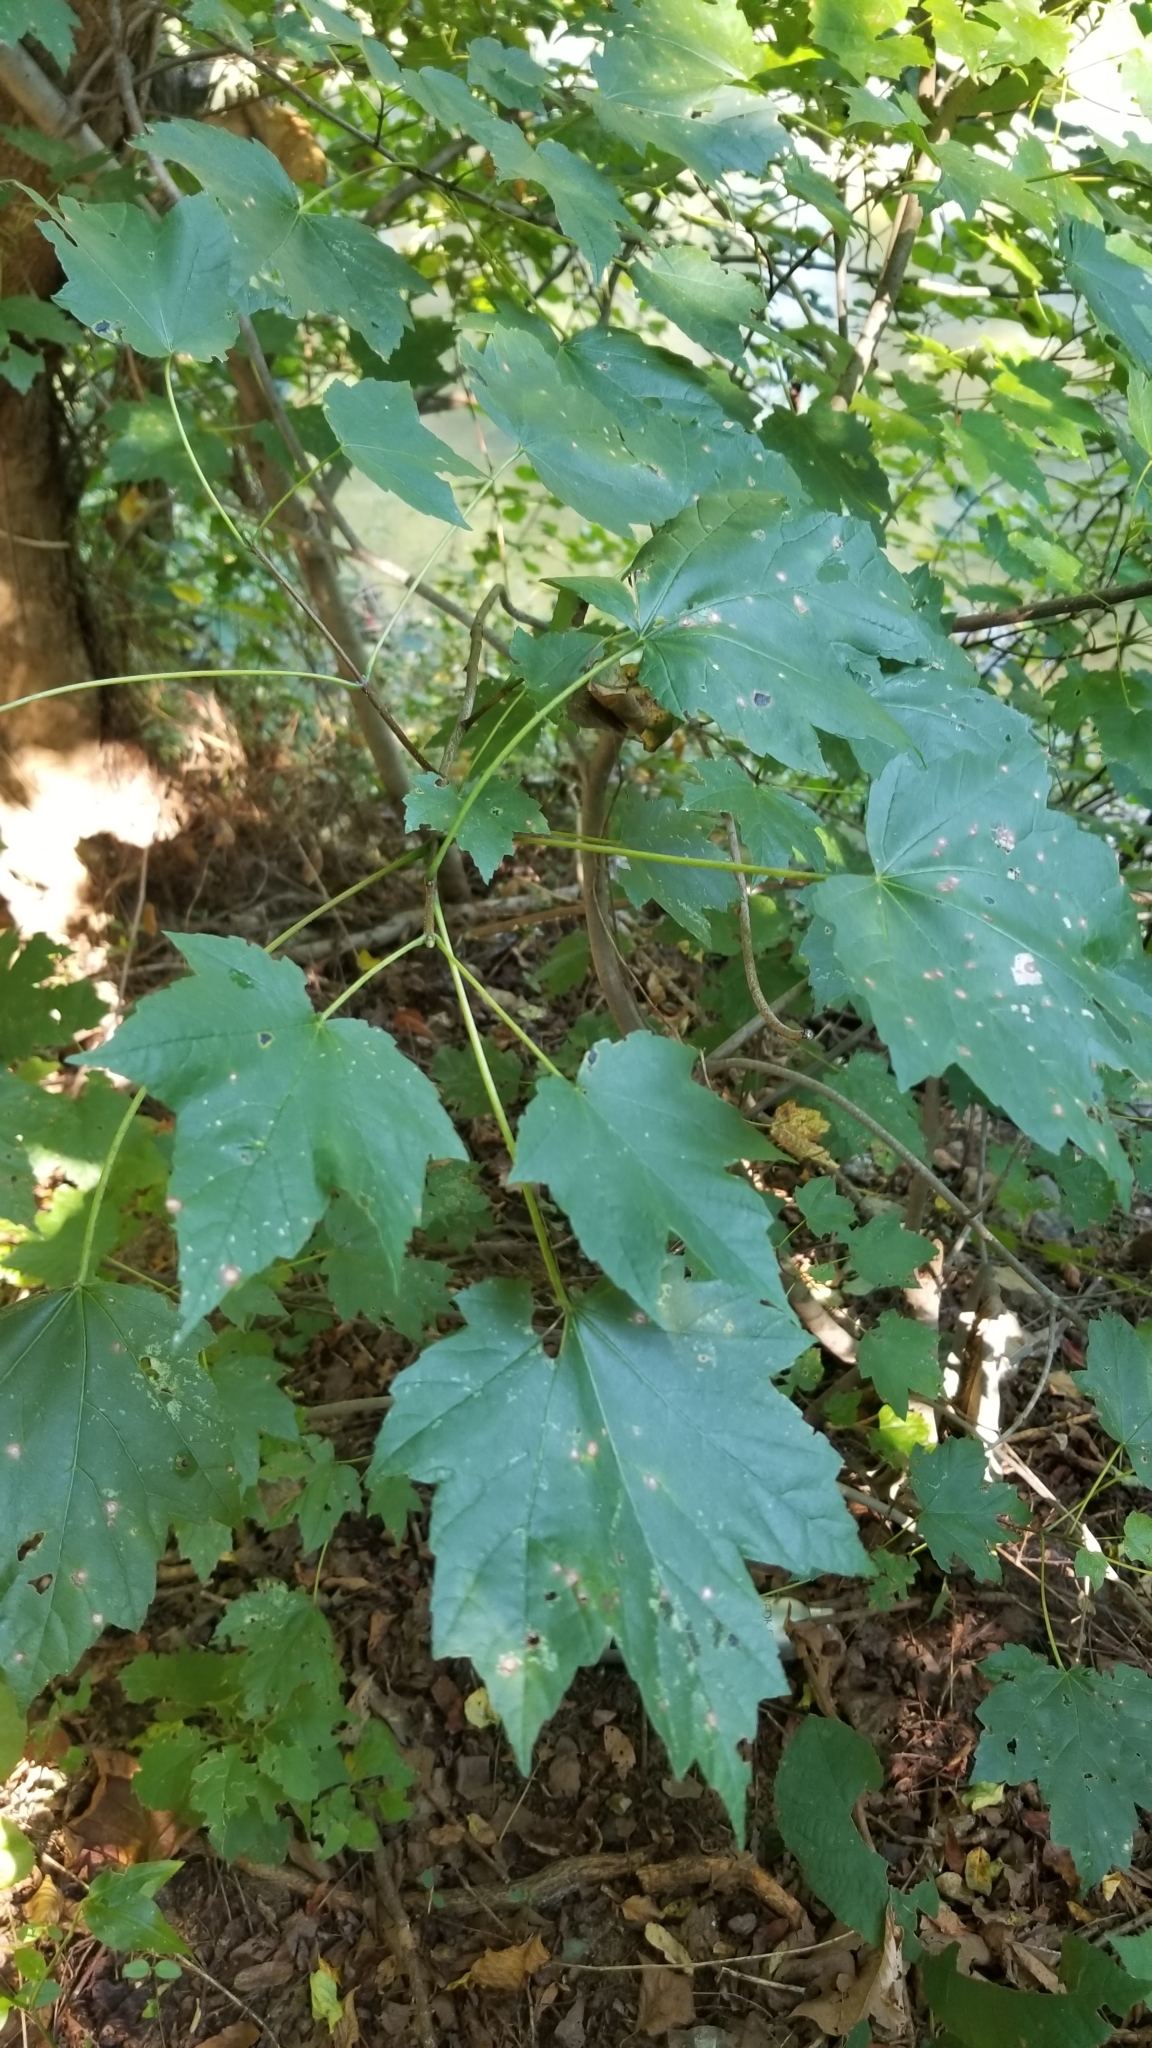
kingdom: Plantae
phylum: Tracheophyta
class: Magnoliopsida
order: Sapindales
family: Sapindaceae
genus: Acer
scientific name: Acer rubrum
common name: Red maple
